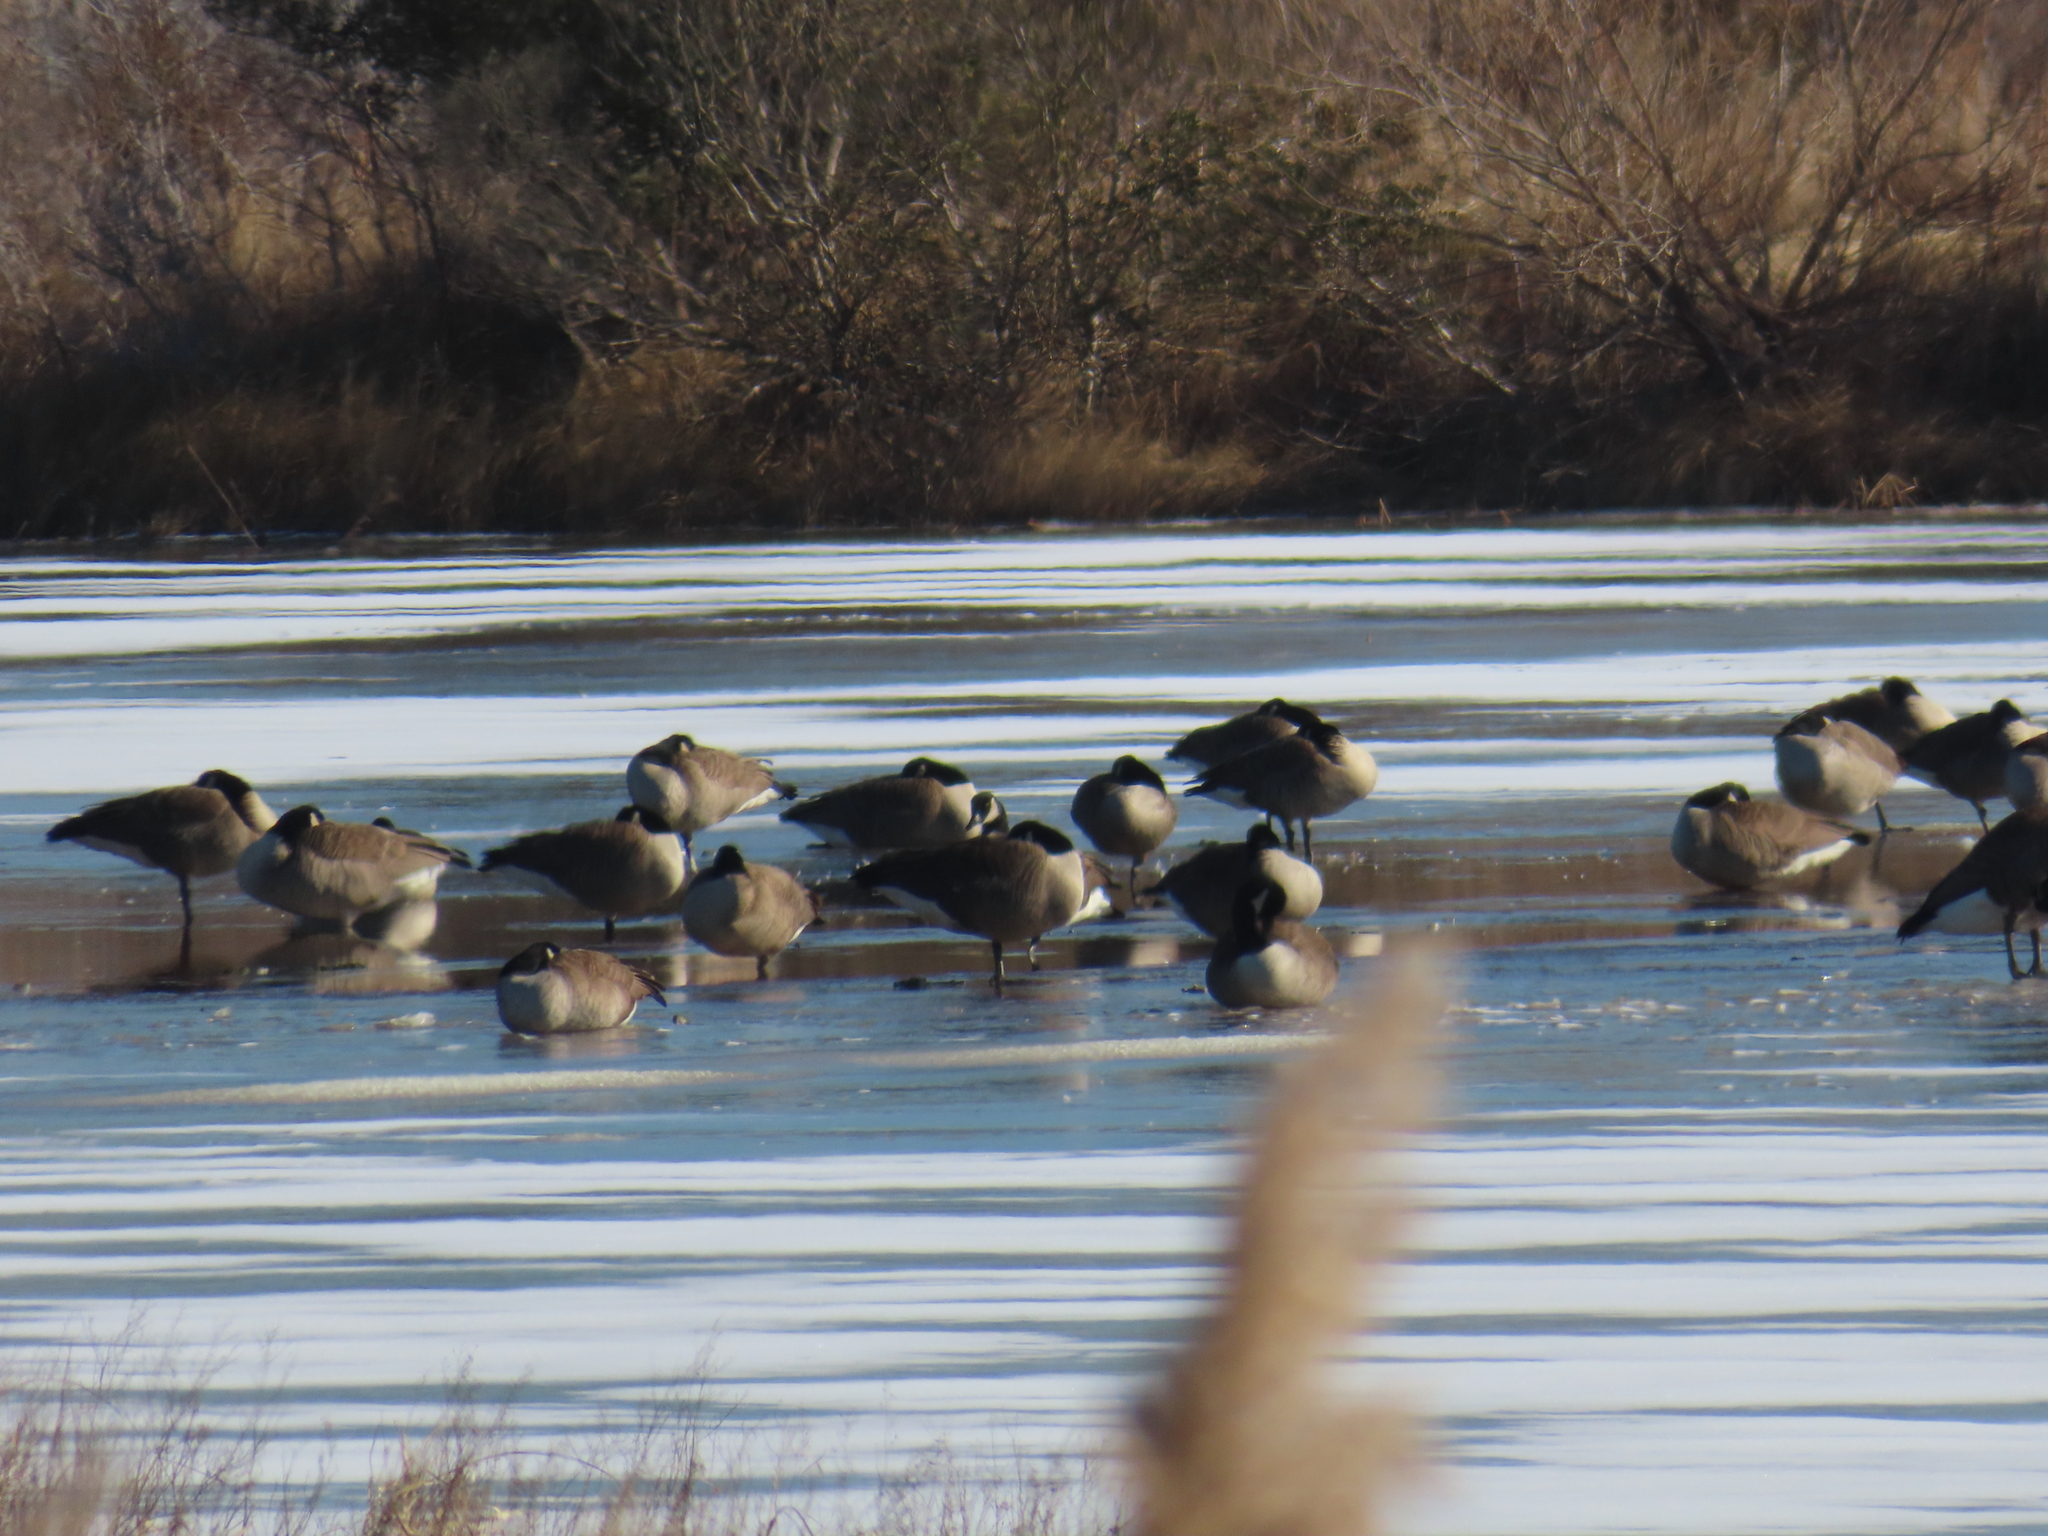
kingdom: Animalia
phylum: Chordata
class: Aves
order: Anseriformes
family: Anatidae
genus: Anas
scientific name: Anas crecca
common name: Eurasian teal
